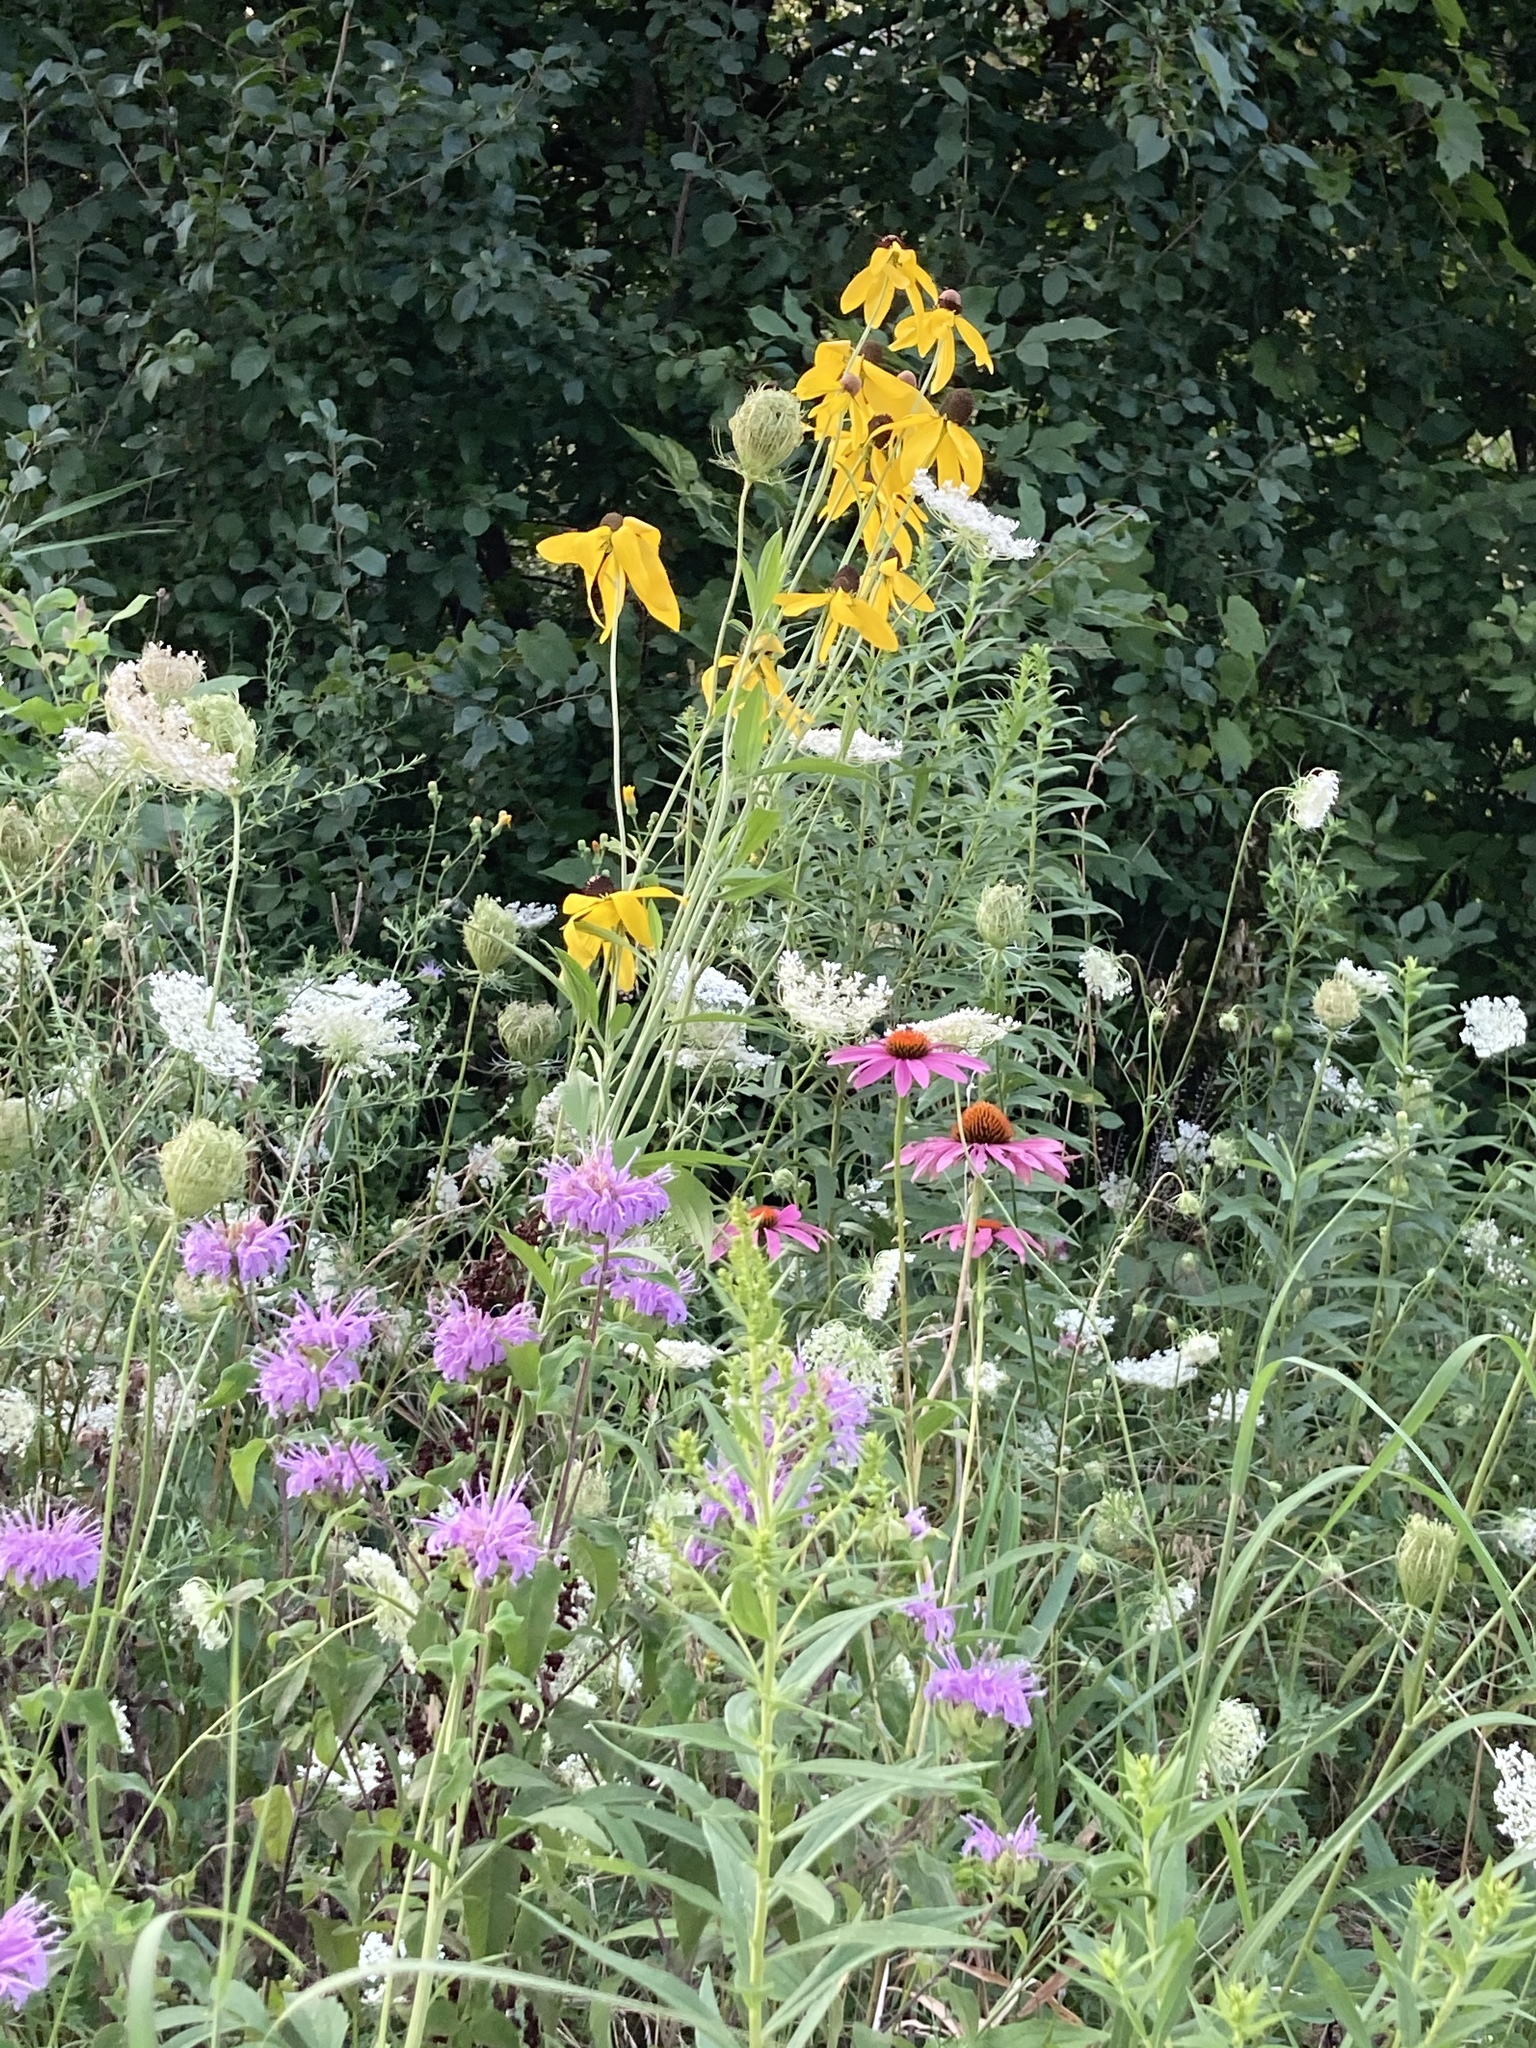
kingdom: Plantae
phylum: Tracheophyta
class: Magnoliopsida
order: Apiales
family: Apiaceae
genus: Daucus
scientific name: Daucus carota
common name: Wild carrot
